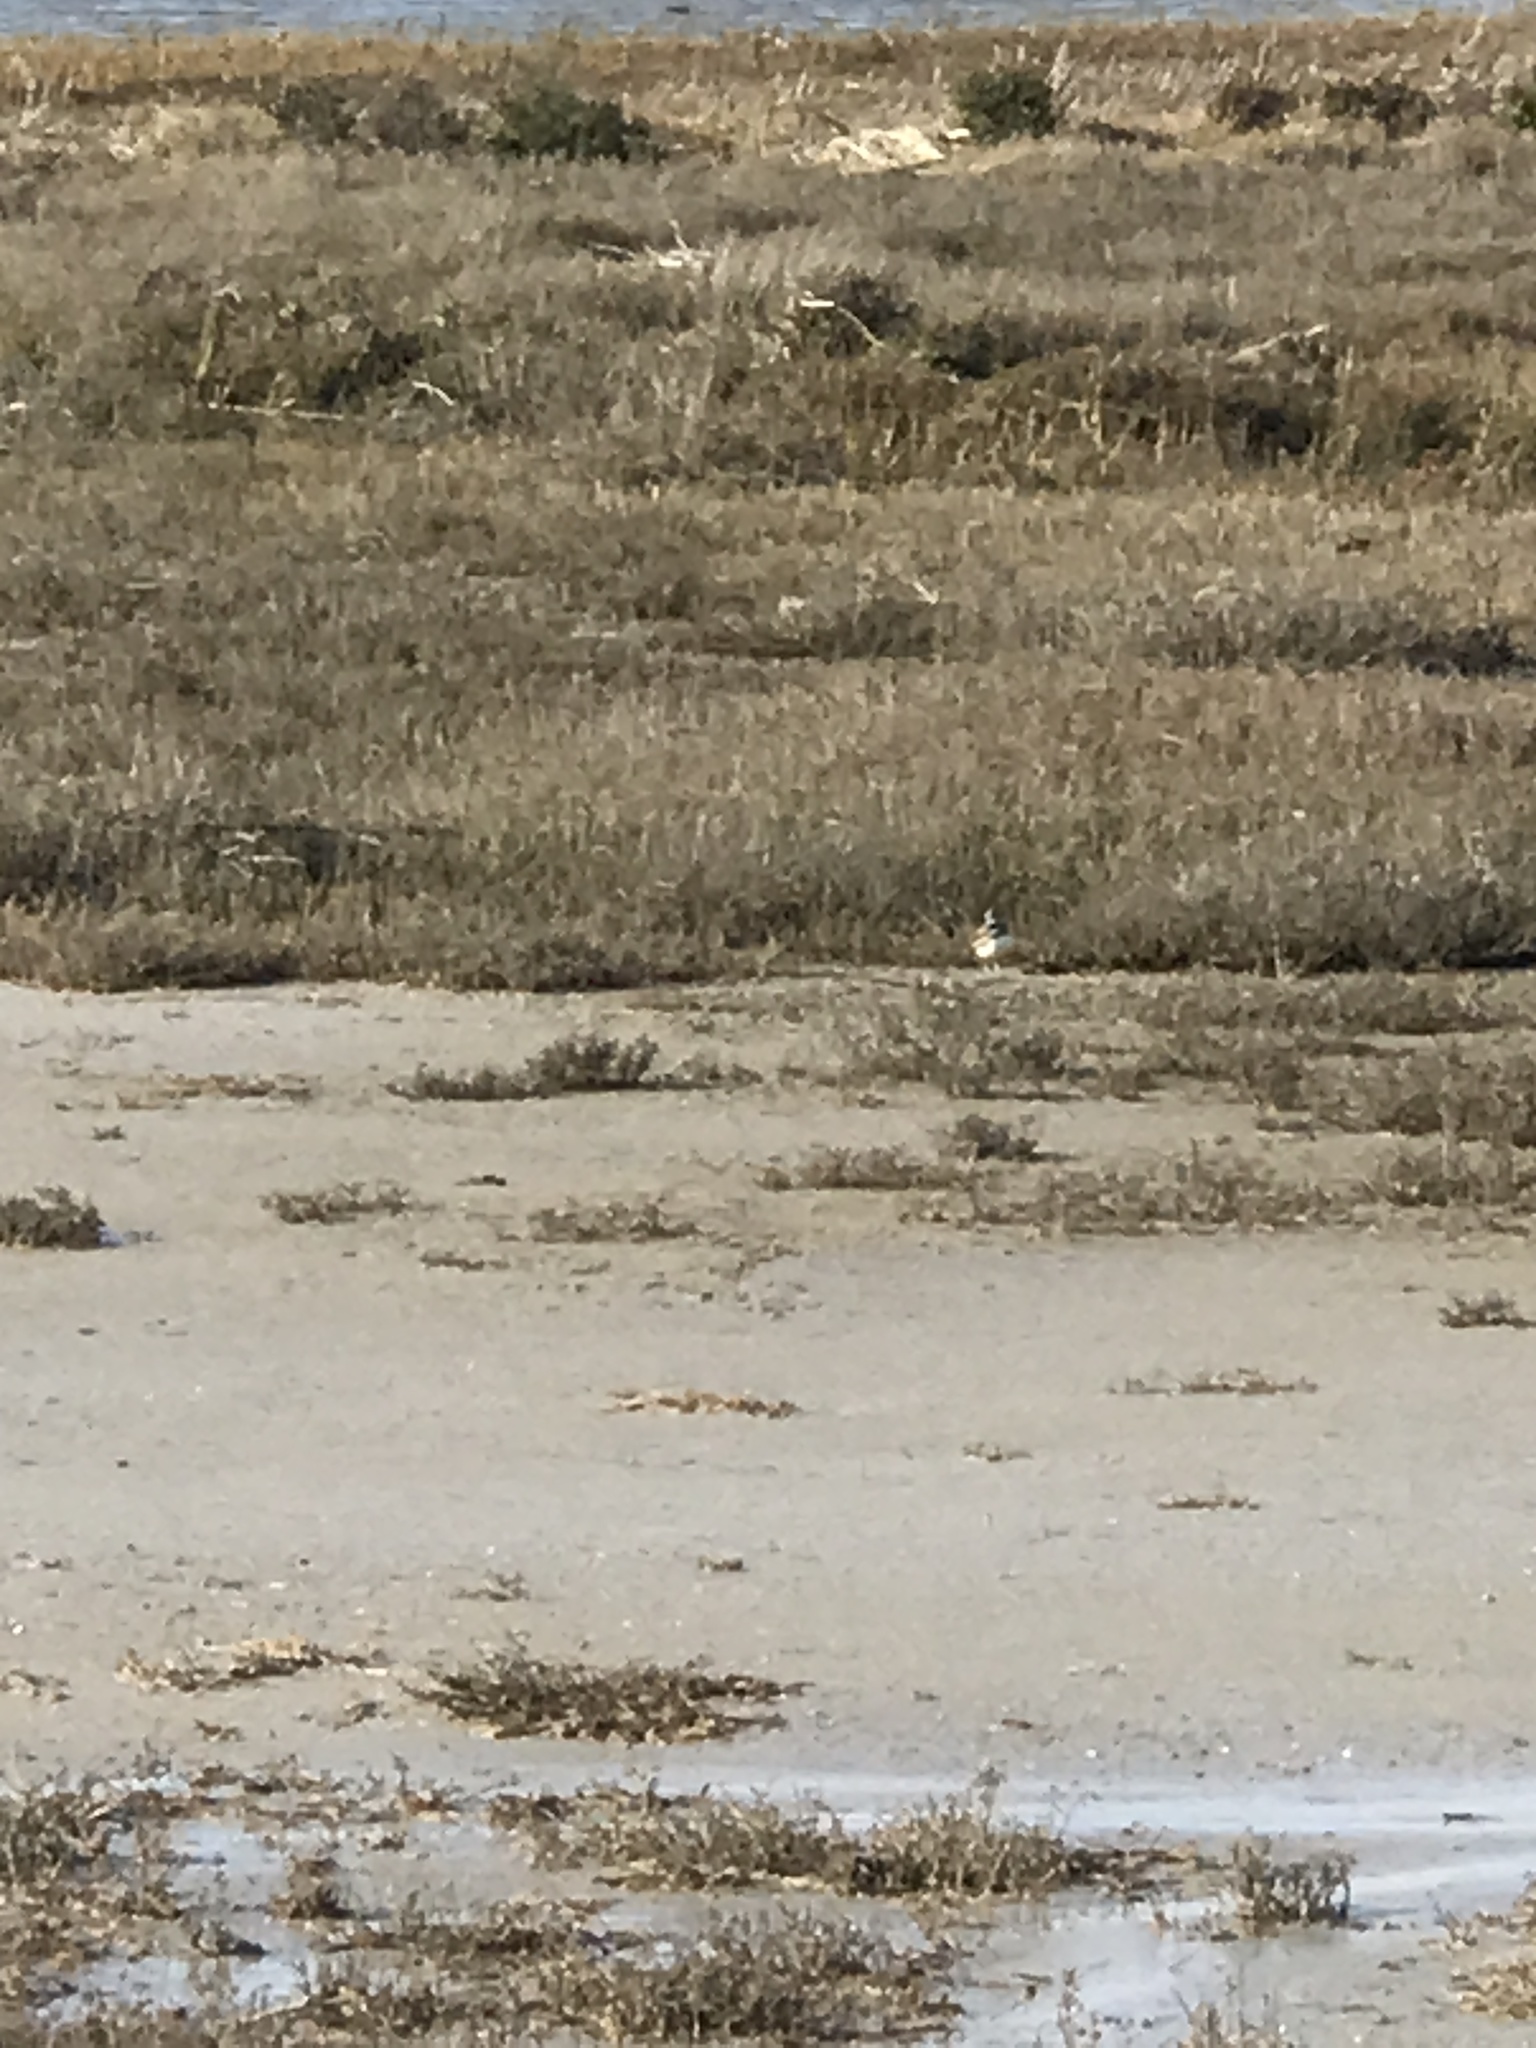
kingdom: Animalia
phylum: Chordata
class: Aves
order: Charadriiformes
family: Charadriidae
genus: Charadrius
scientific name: Charadrius vociferus
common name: Killdeer
